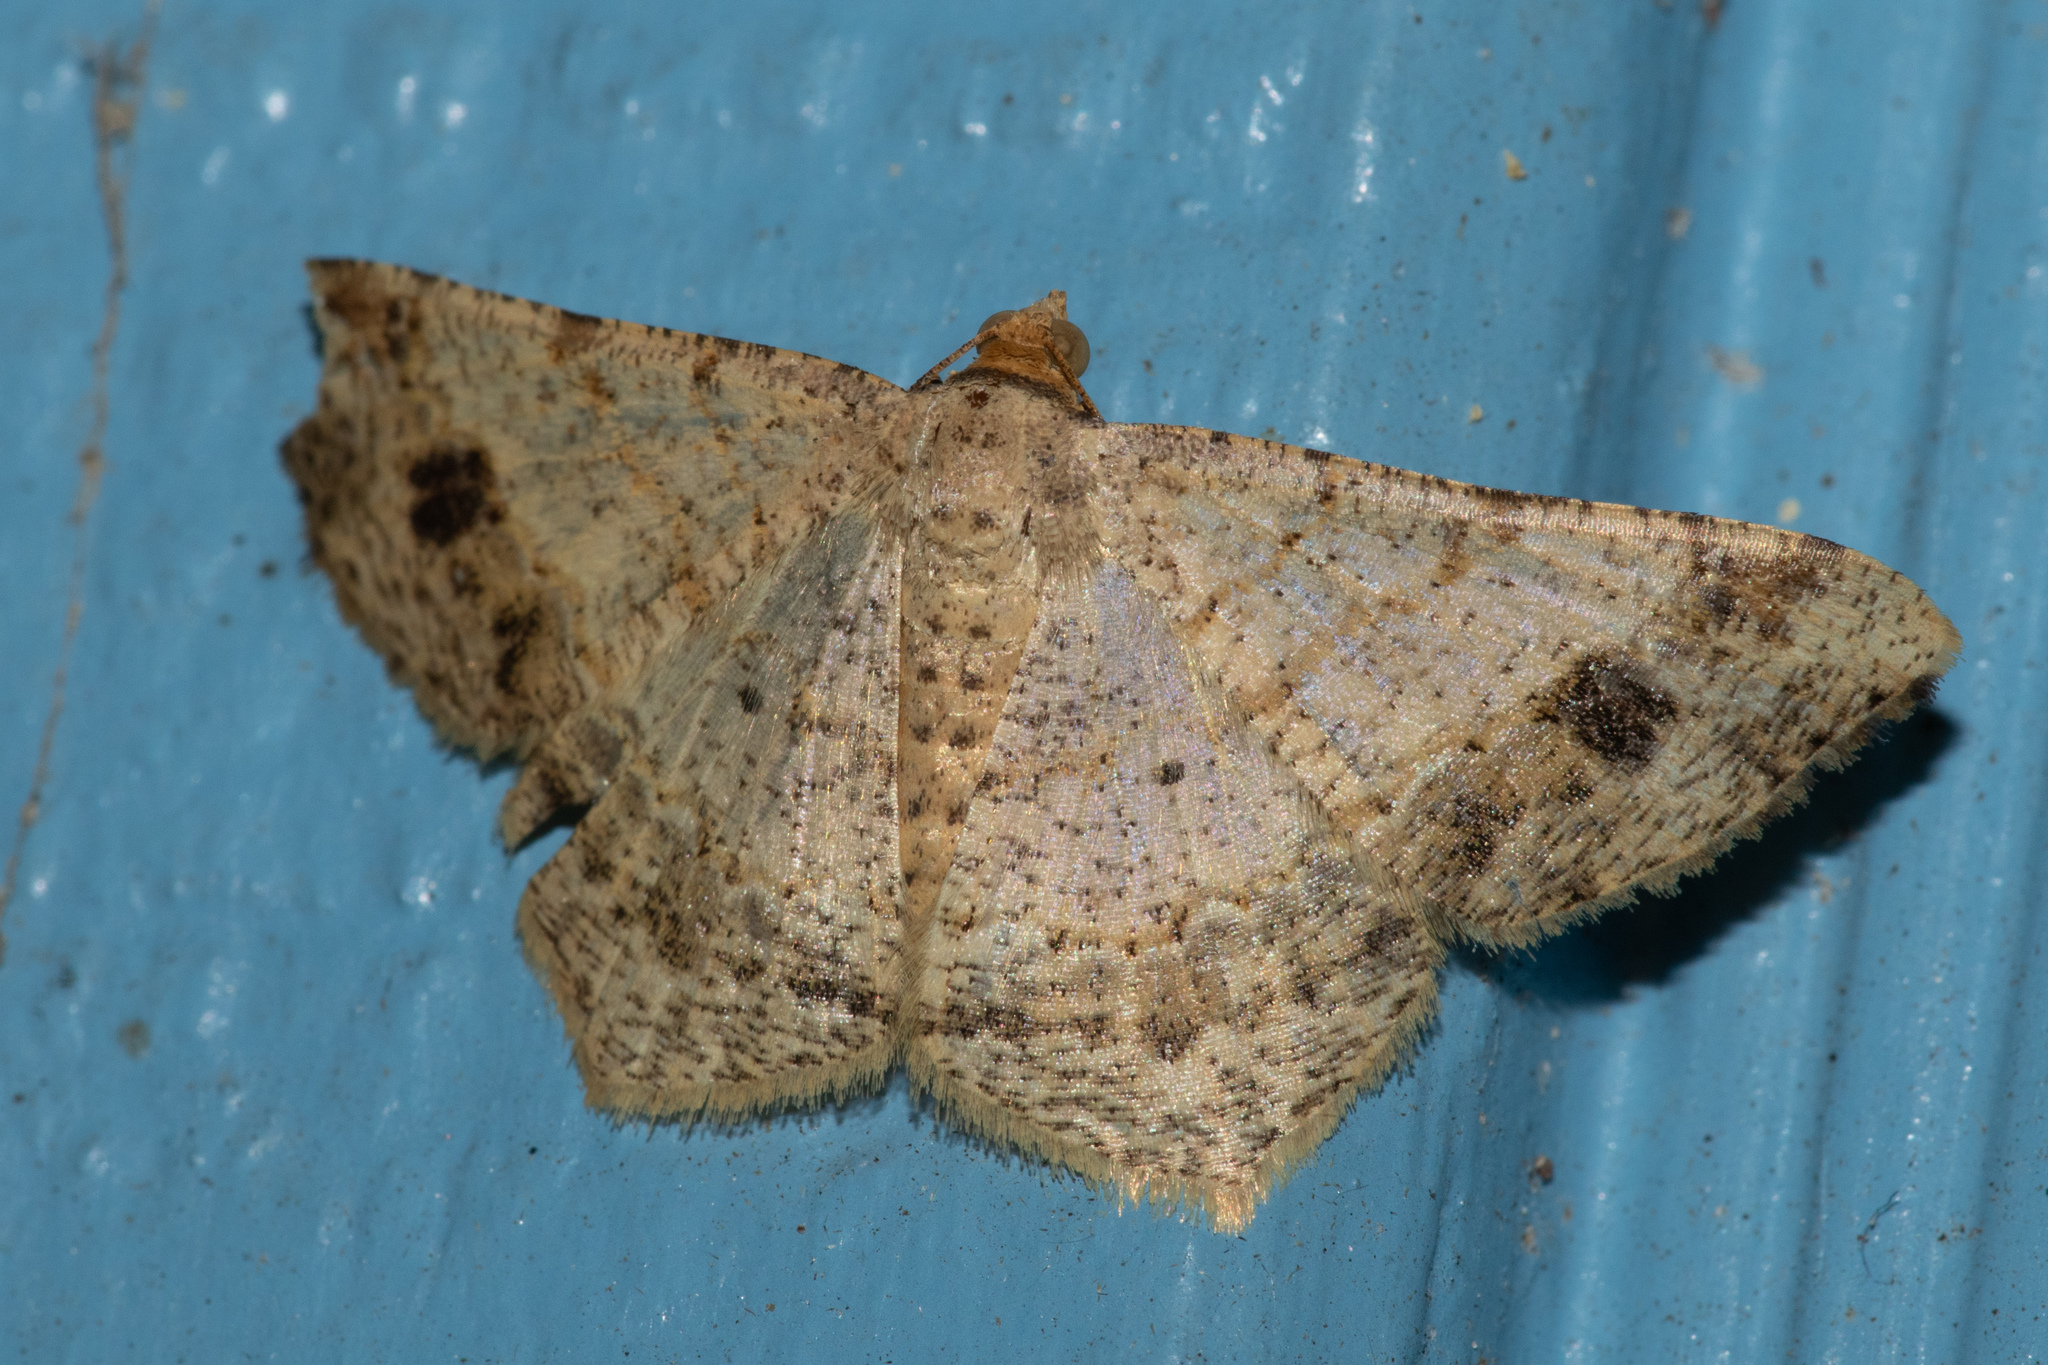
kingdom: Animalia
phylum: Arthropoda
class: Insecta
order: Lepidoptera
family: Geometridae
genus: Macaria
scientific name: Macaria abydata
